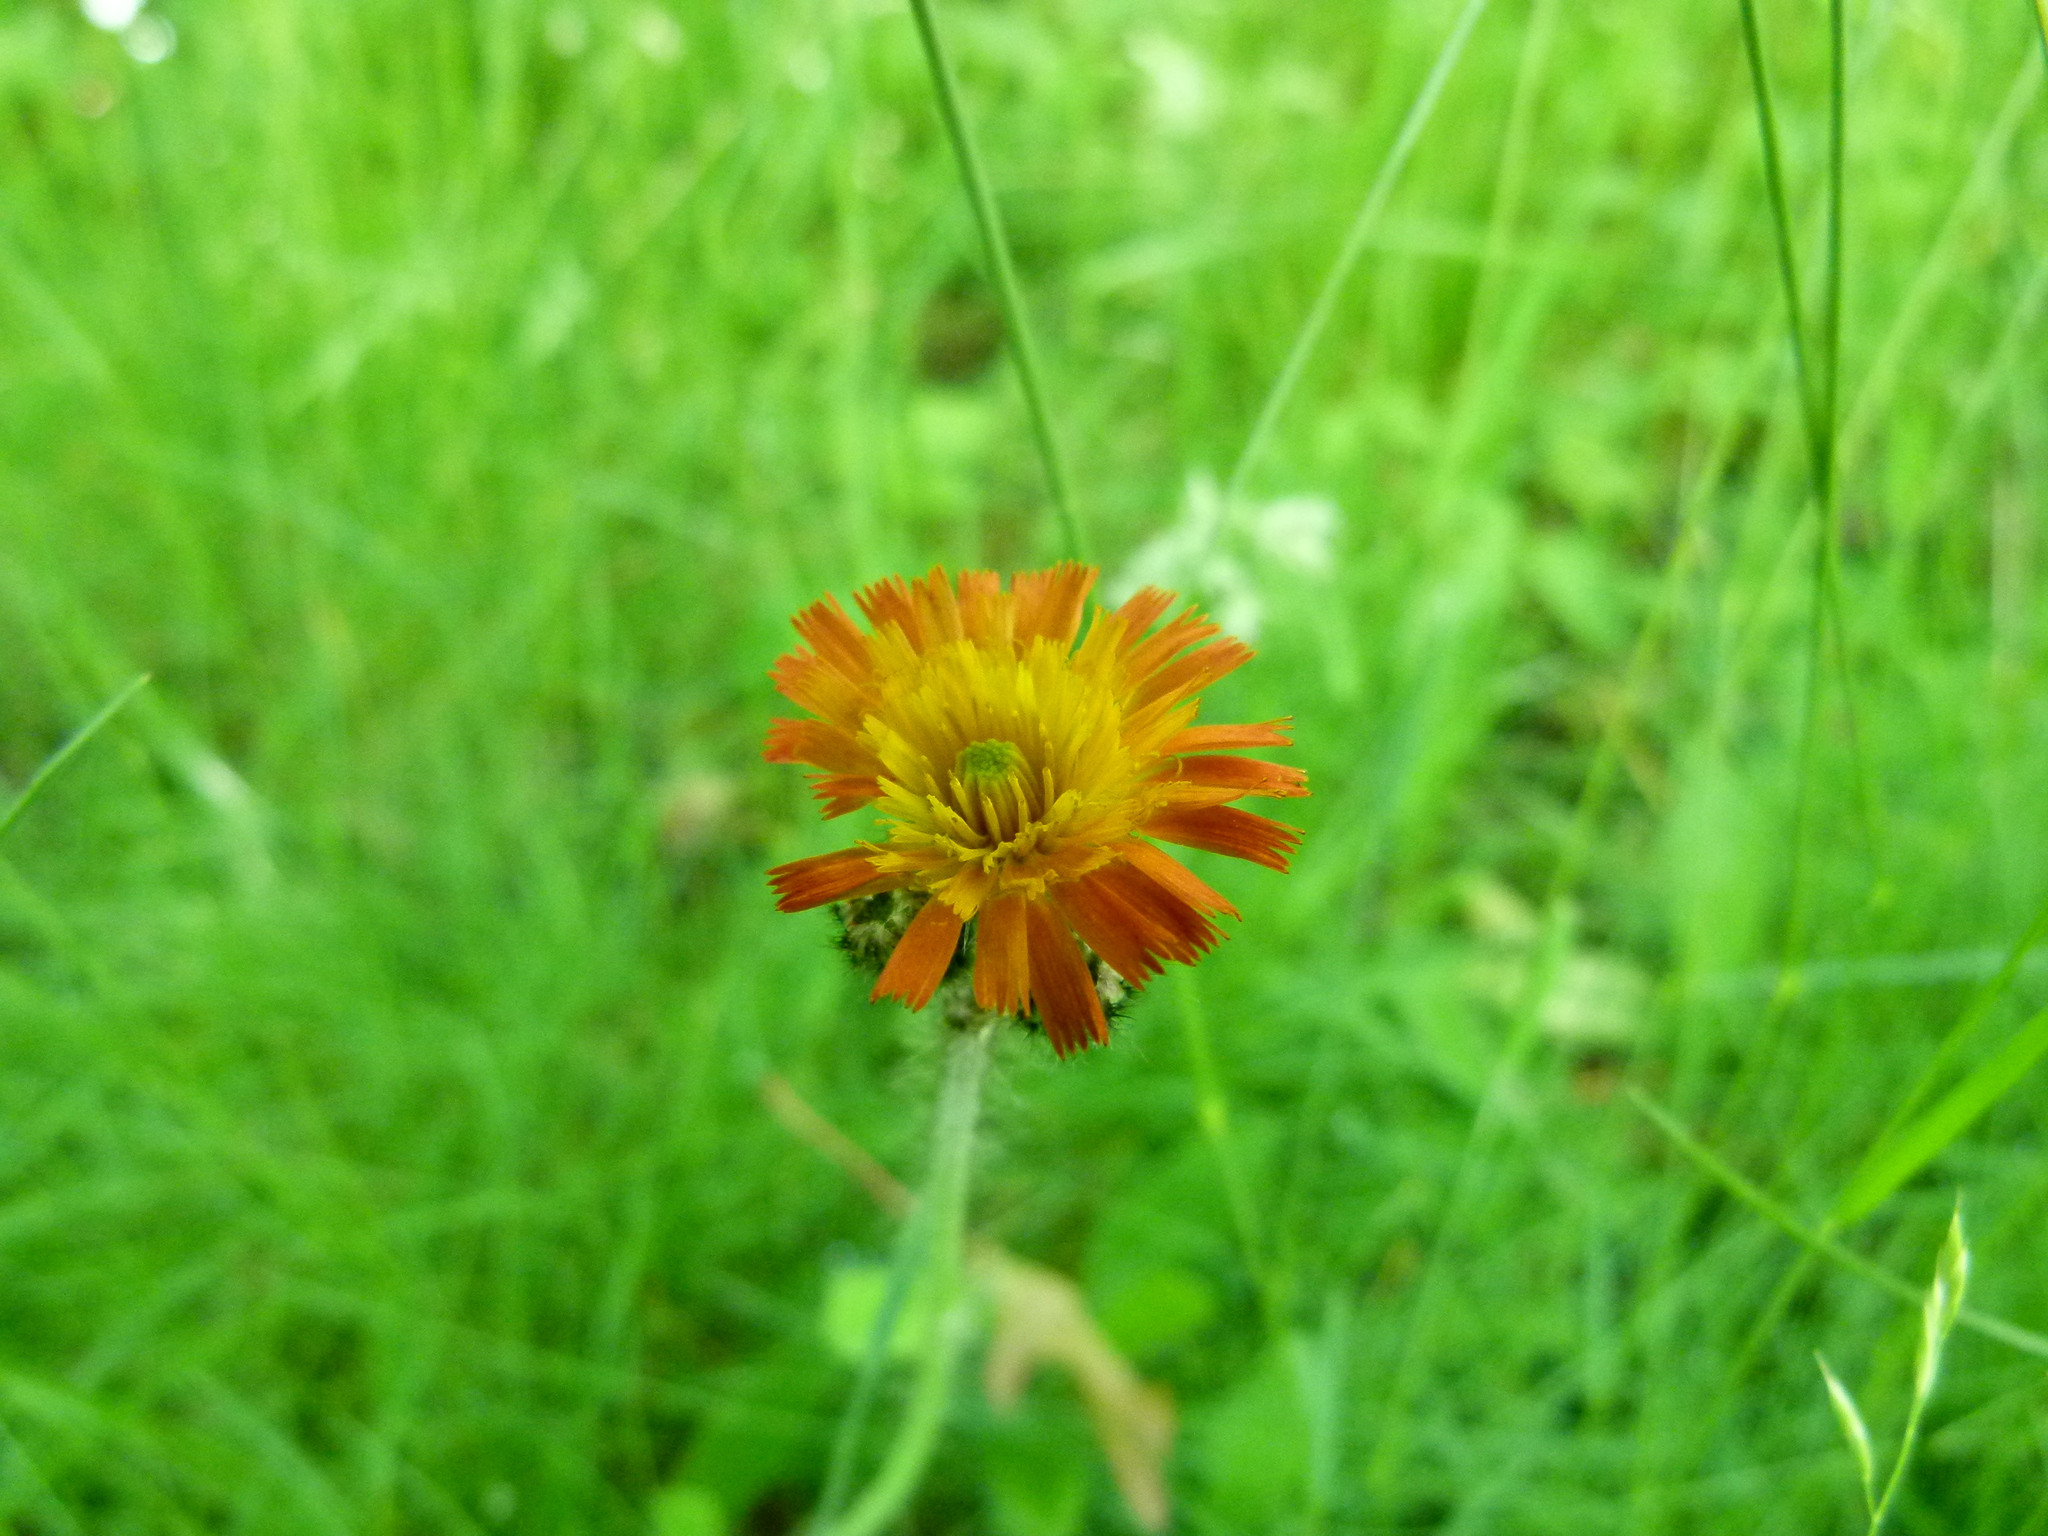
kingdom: Plantae
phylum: Tracheophyta
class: Magnoliopsida
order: Asterales
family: Asteraceae
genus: Pilosella
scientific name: Pilosella aurantiaca
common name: Fox-and-cubs
